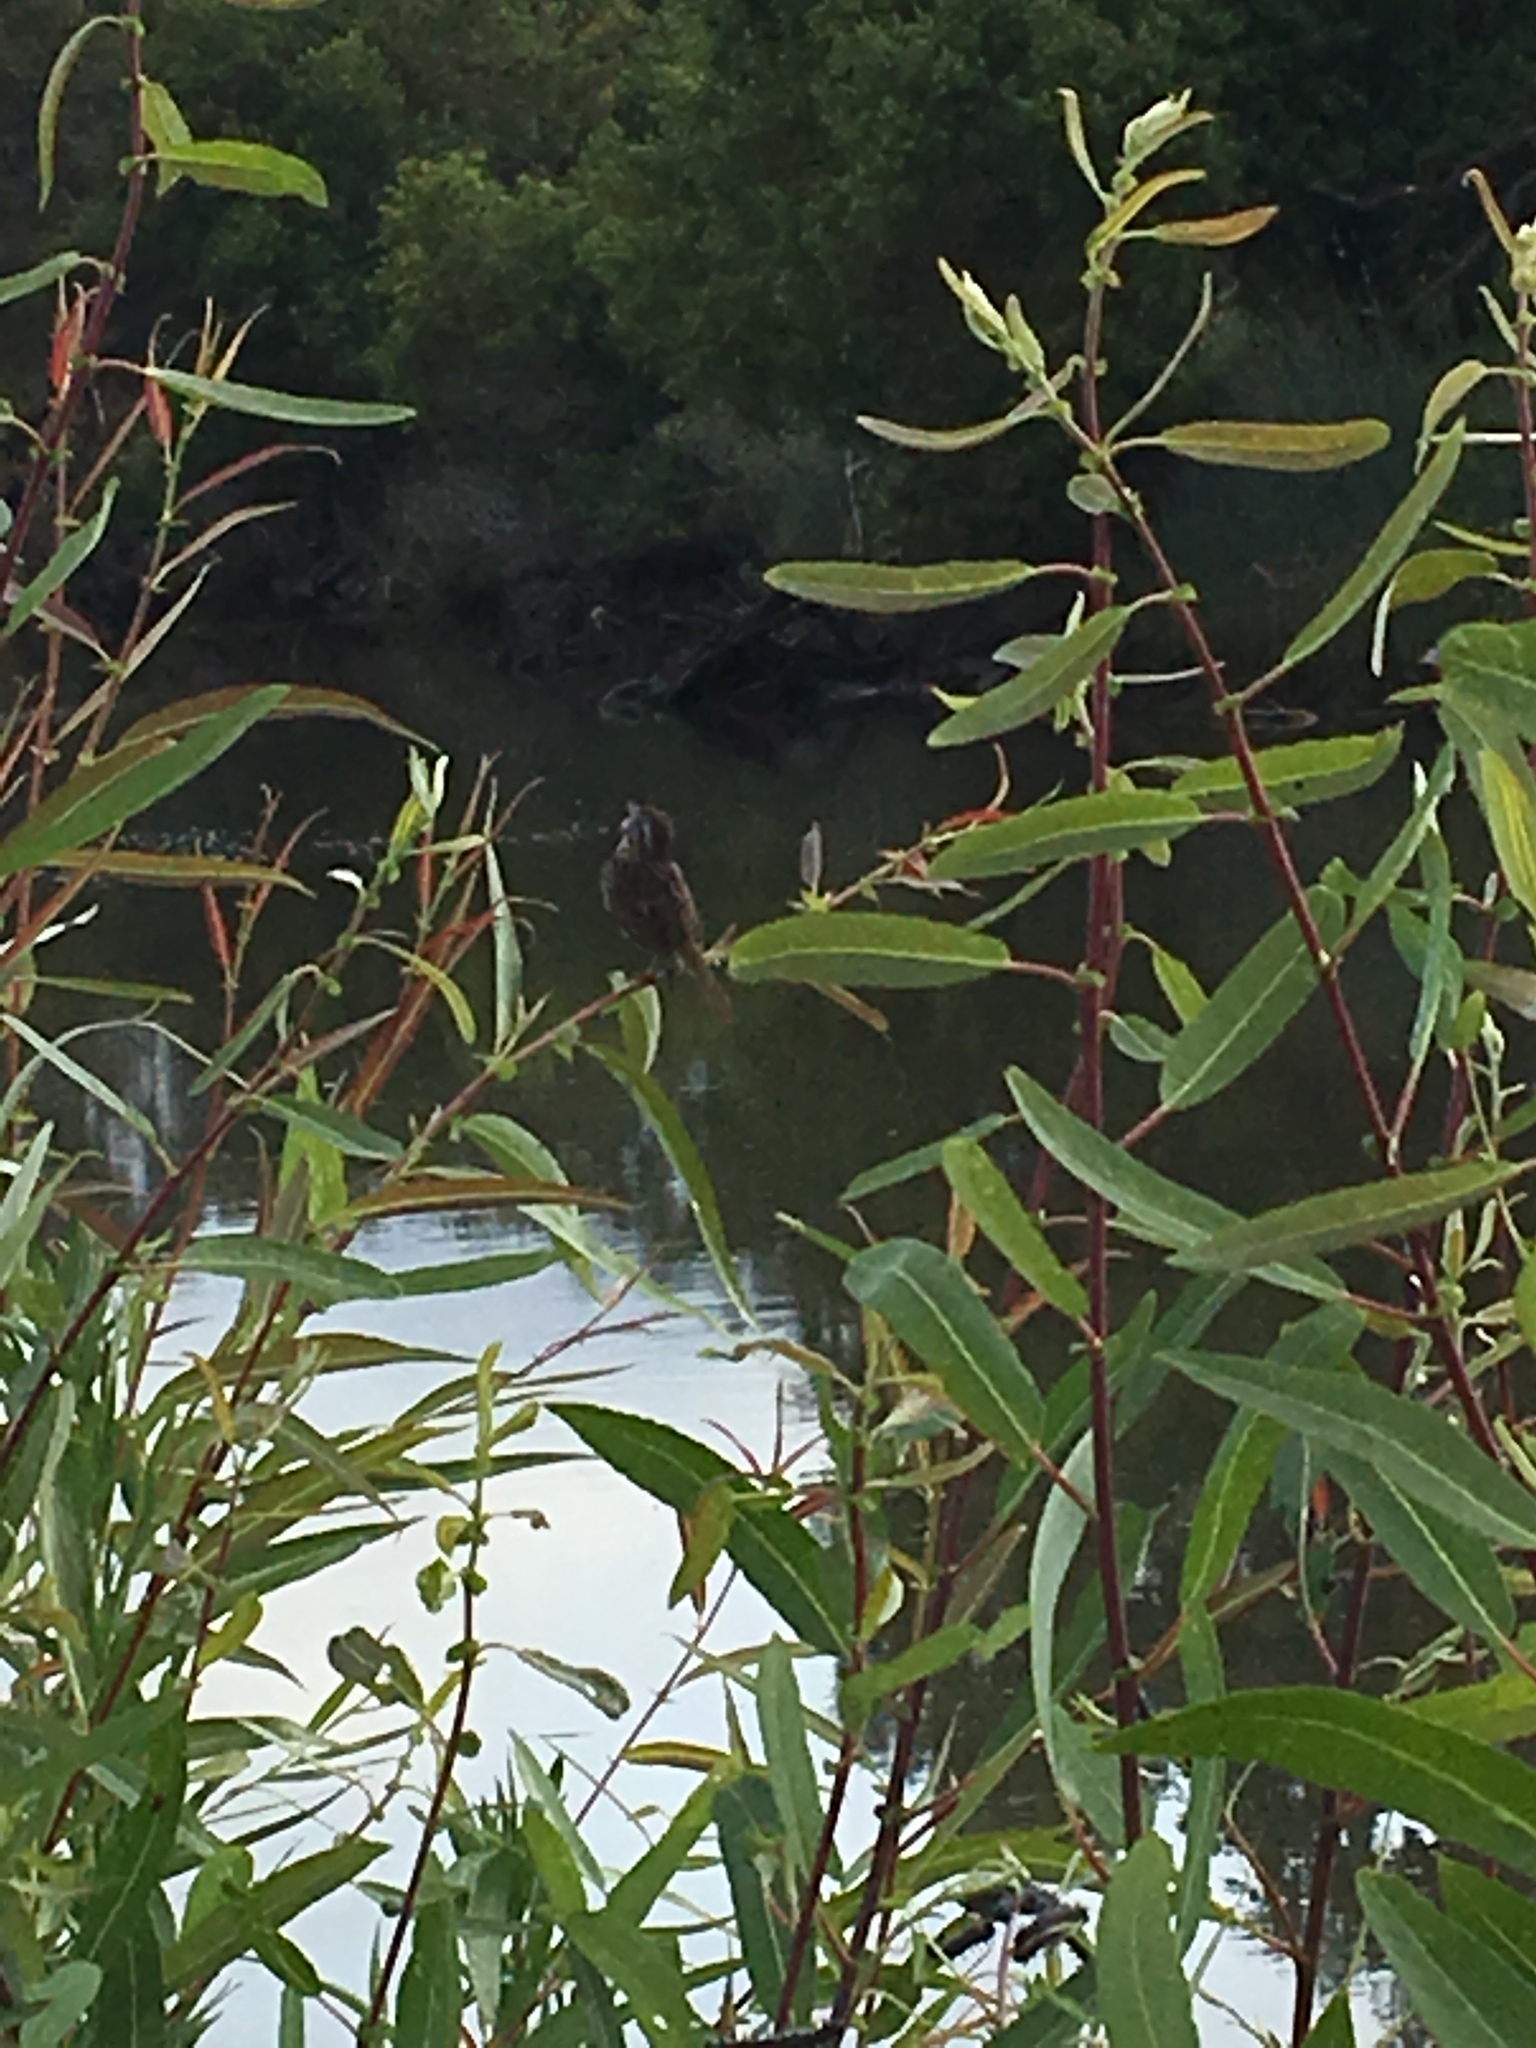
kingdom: Animalia
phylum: Chordata
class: Aves
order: Passeriformes
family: Passerellidae
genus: Melospiza
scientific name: Melospiza melodia
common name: Song sparrow
